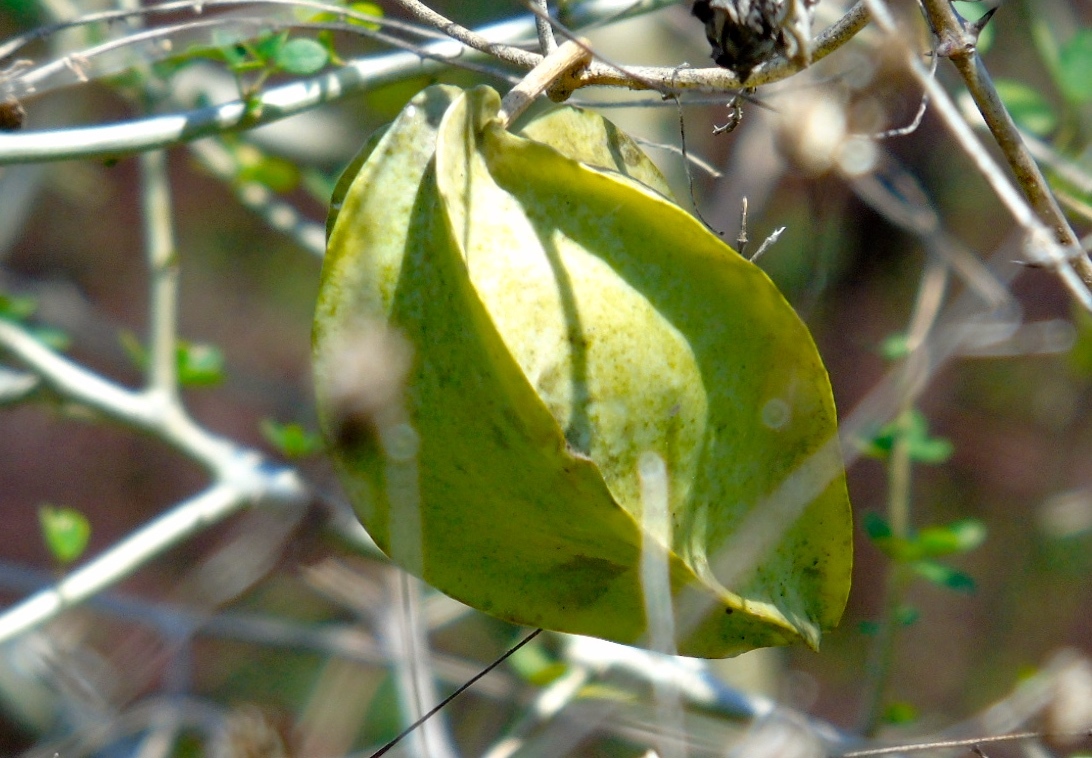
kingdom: Plantae
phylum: Tracheophyta
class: Magnoliopsida
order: Gentianales
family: Apocynaceae
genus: Gonolobus
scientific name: Gonolobus naturalistae
